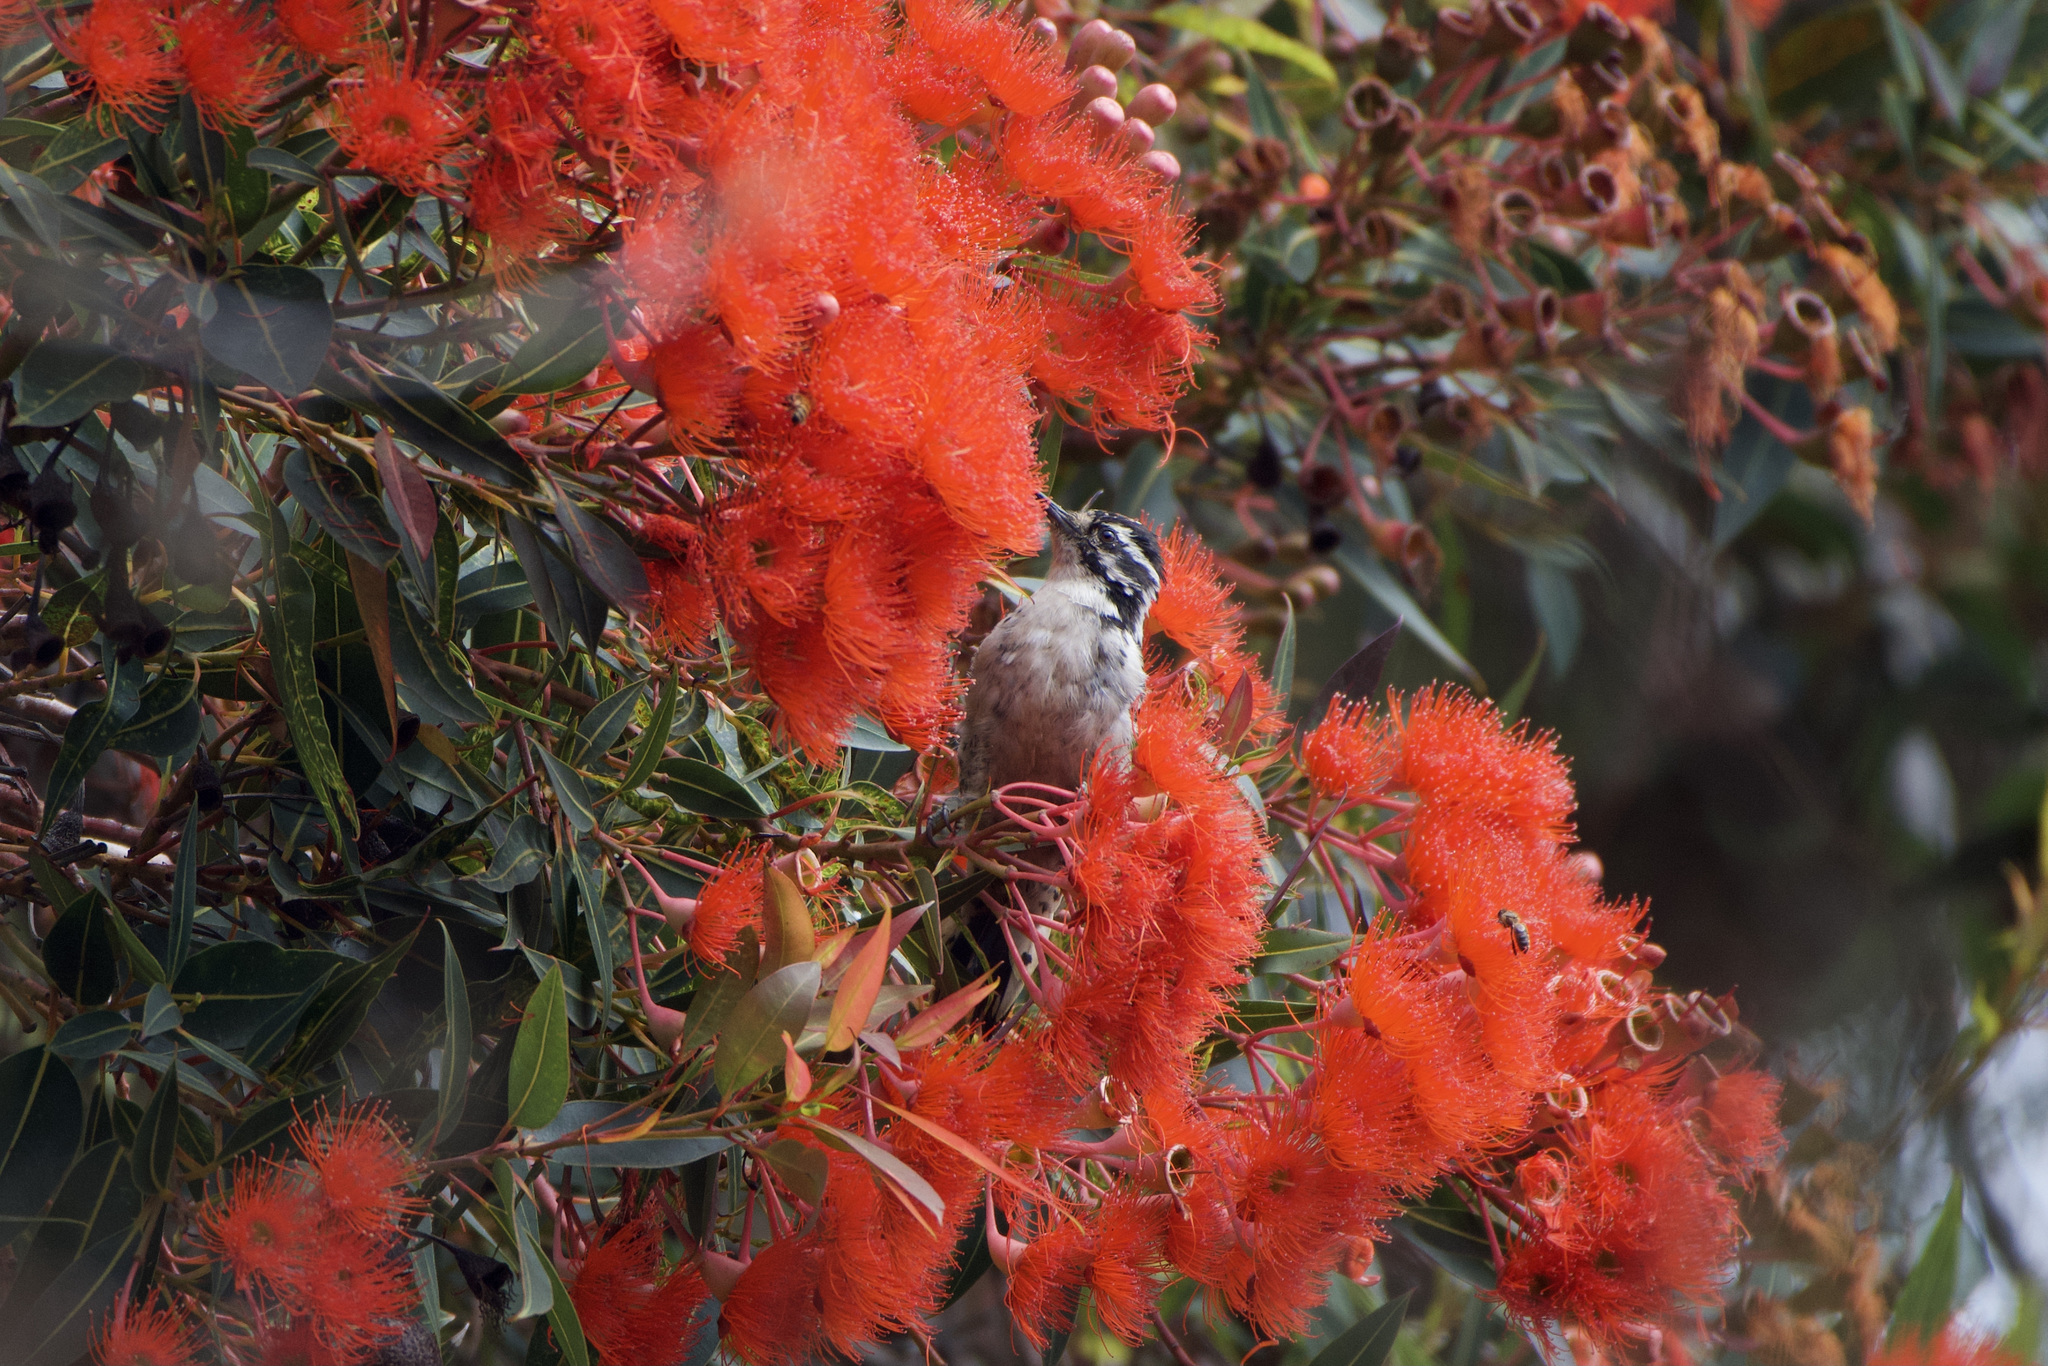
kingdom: Animalia
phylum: Chordata
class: Aves
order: Piciformes
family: Picidae
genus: Dryobates
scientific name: Dryobates nuttallii
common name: Nuttall's woodpecker
